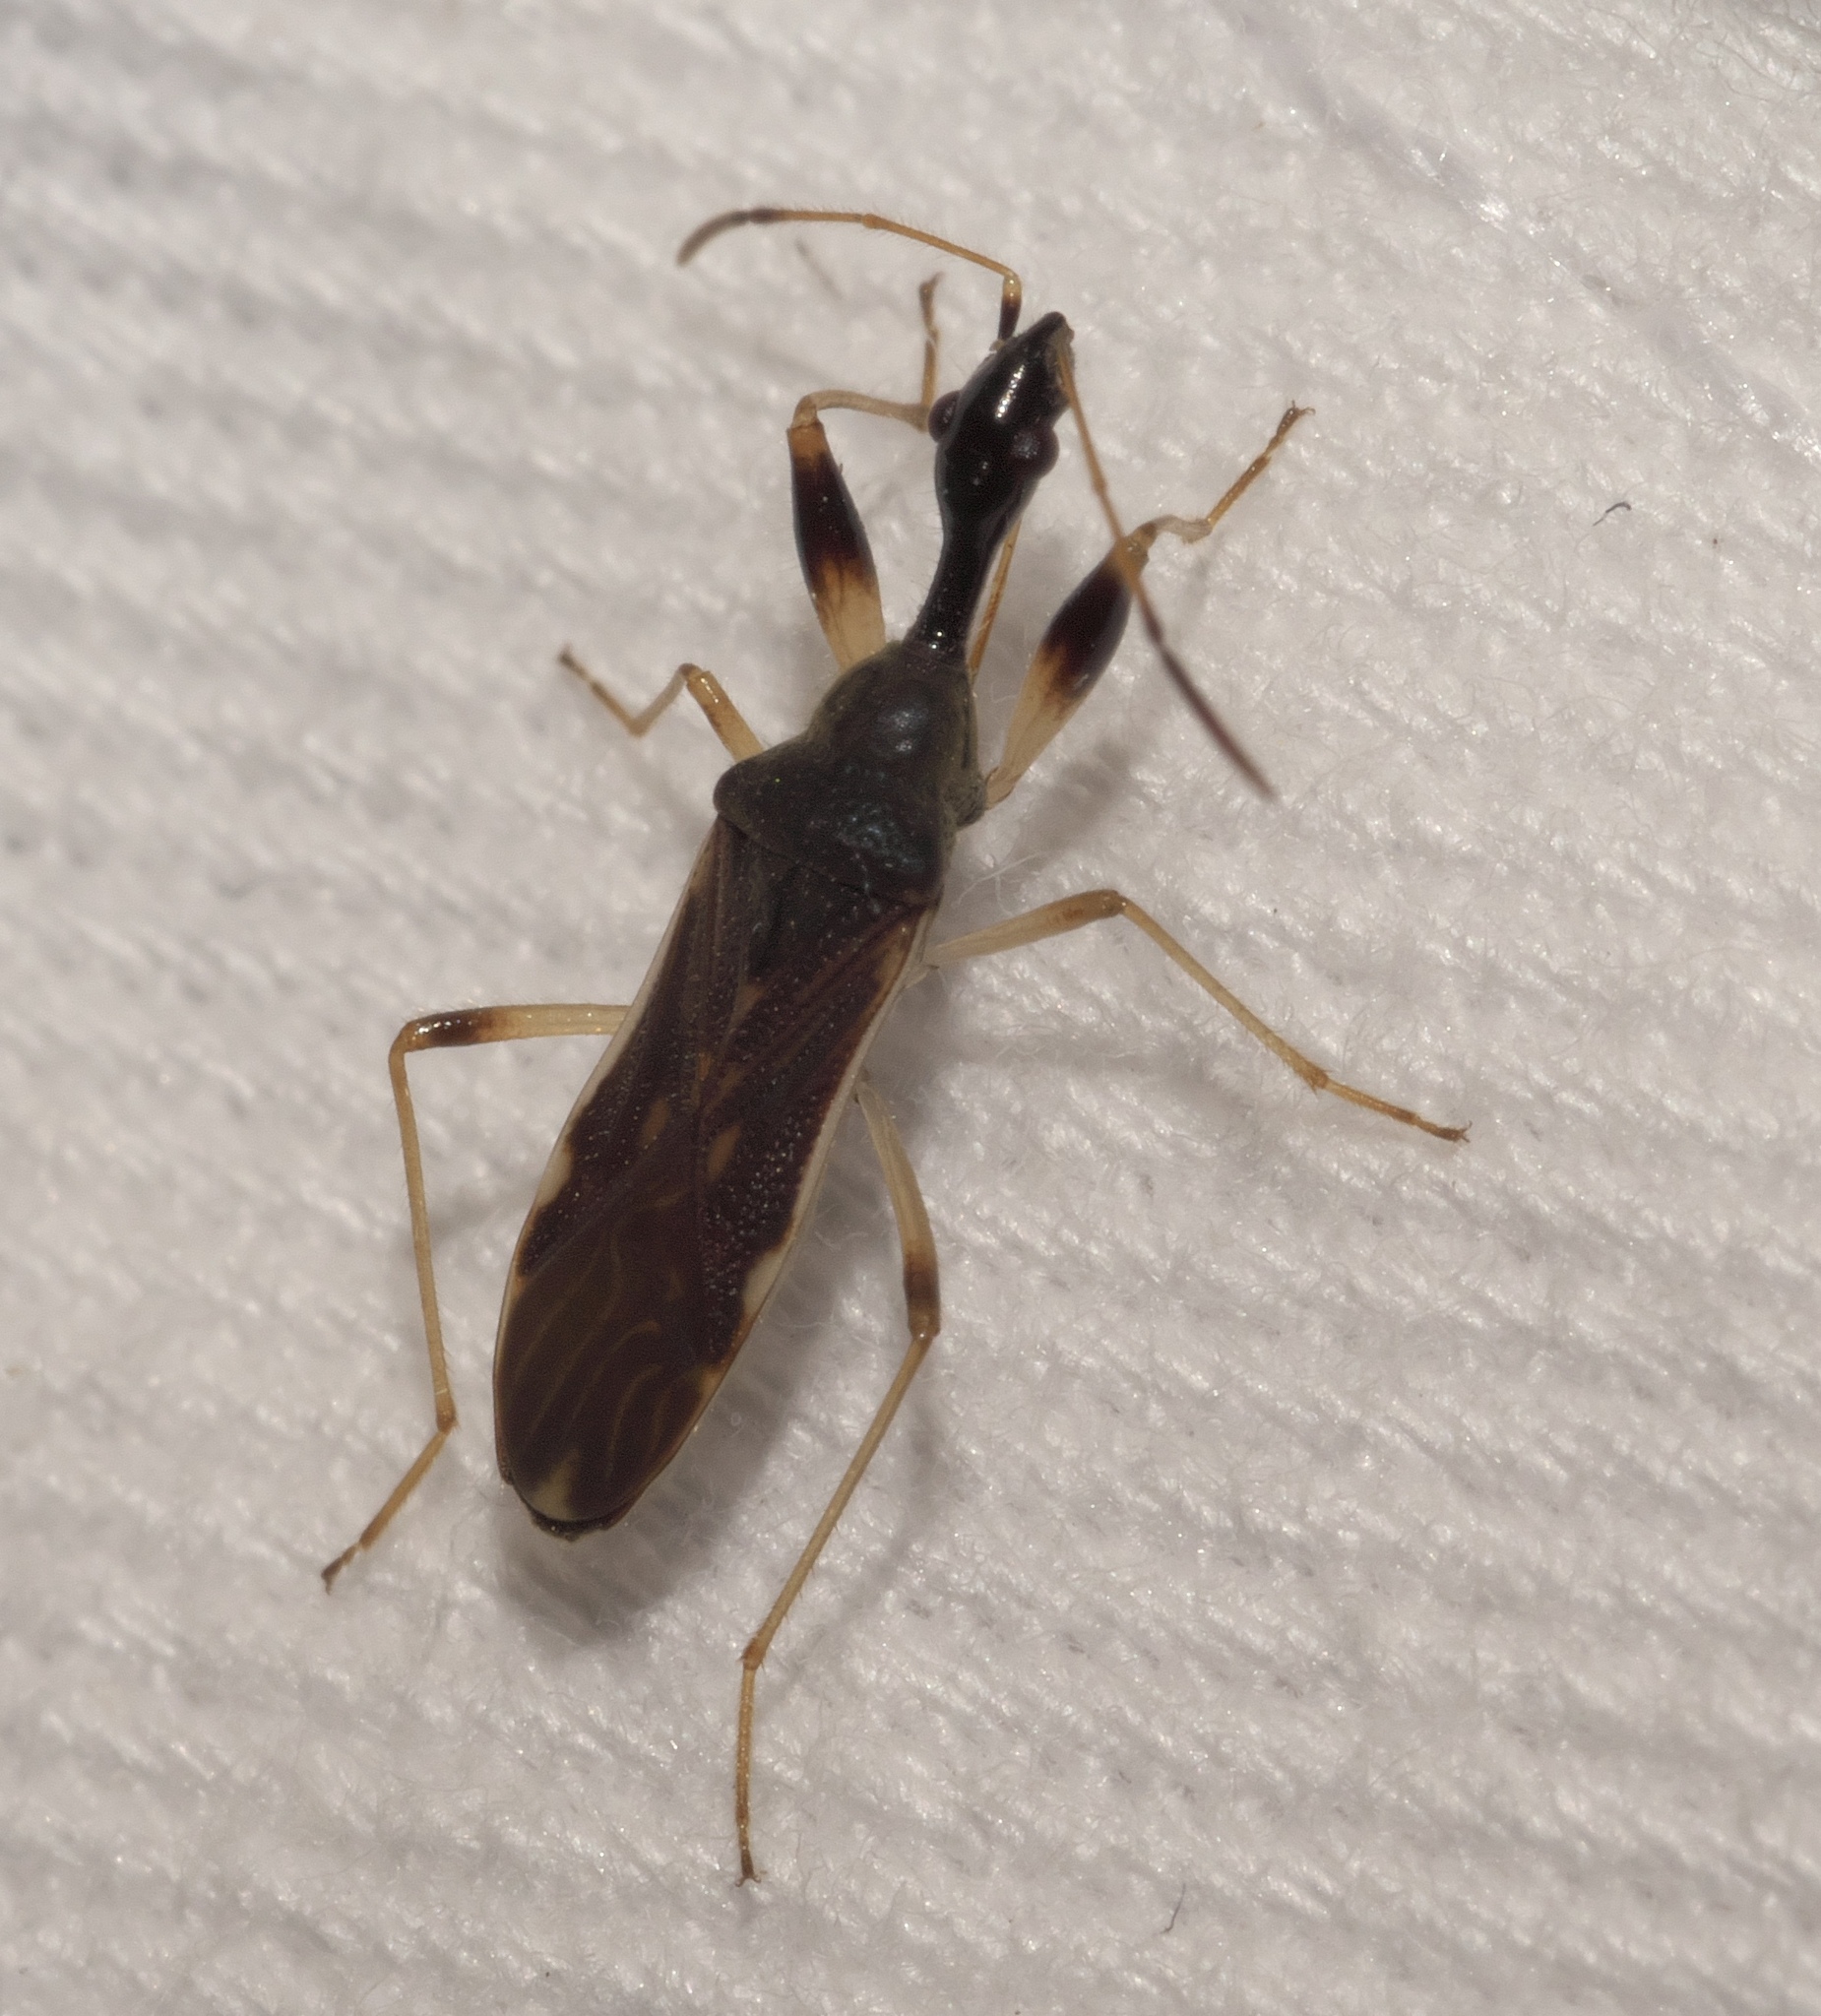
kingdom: Animalia
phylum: Arthropoda
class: Insecta
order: Hemiptera
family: Rhyparochromidae
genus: Myodocha
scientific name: Myodocha serripes
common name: Long-necked seed bug
